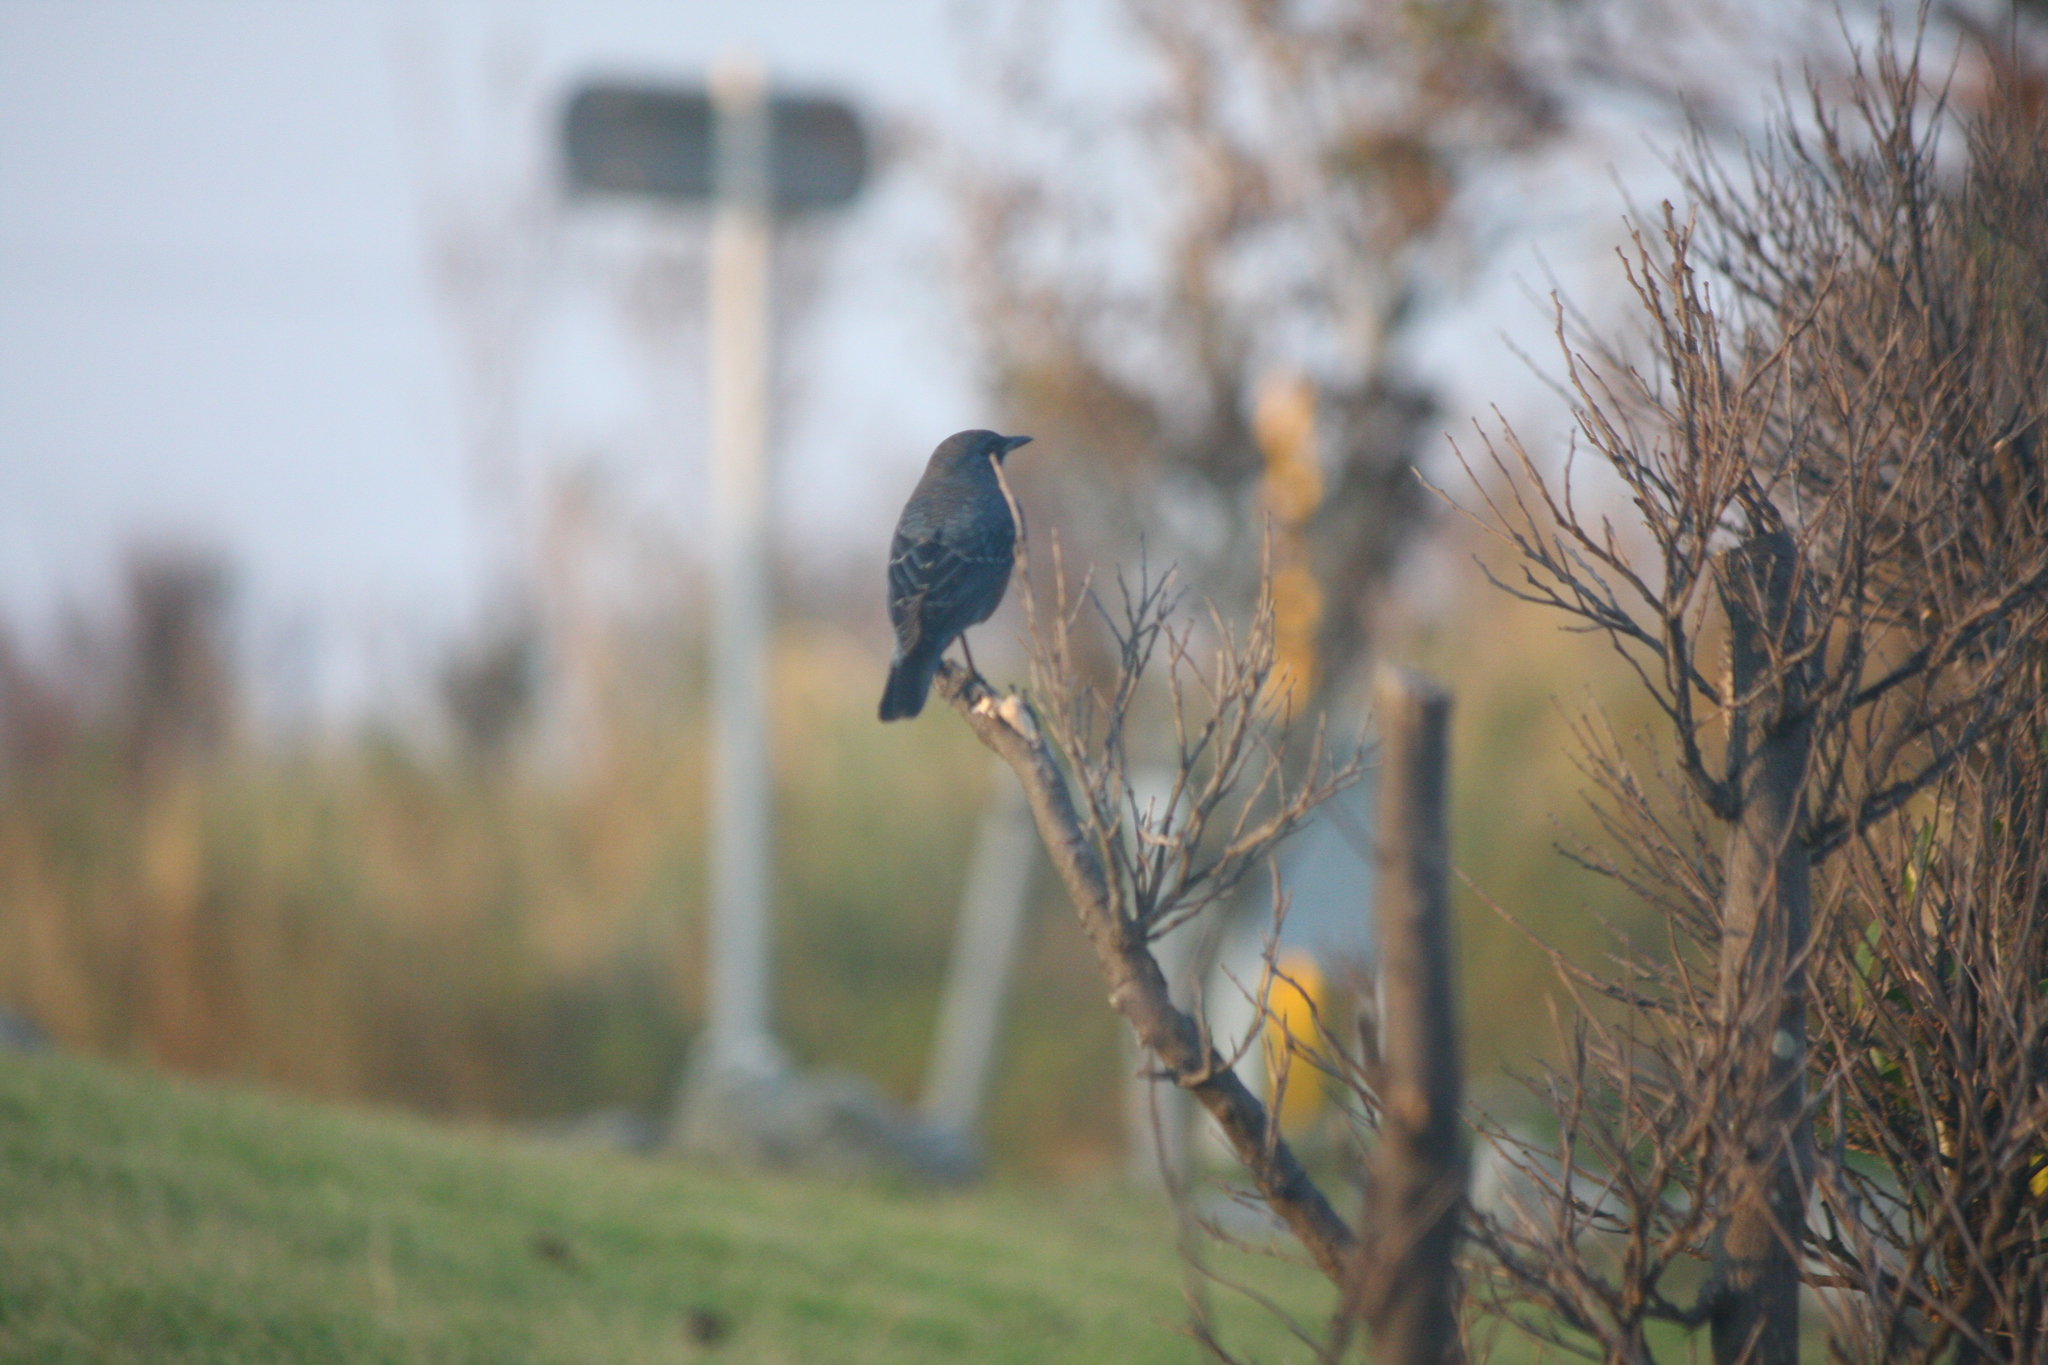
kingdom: Animalia
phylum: Chordata
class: Aves
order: Passeriformes
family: Muscicapidae
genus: Monticola
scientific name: Monticola solitarius
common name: Blue rock thrush
